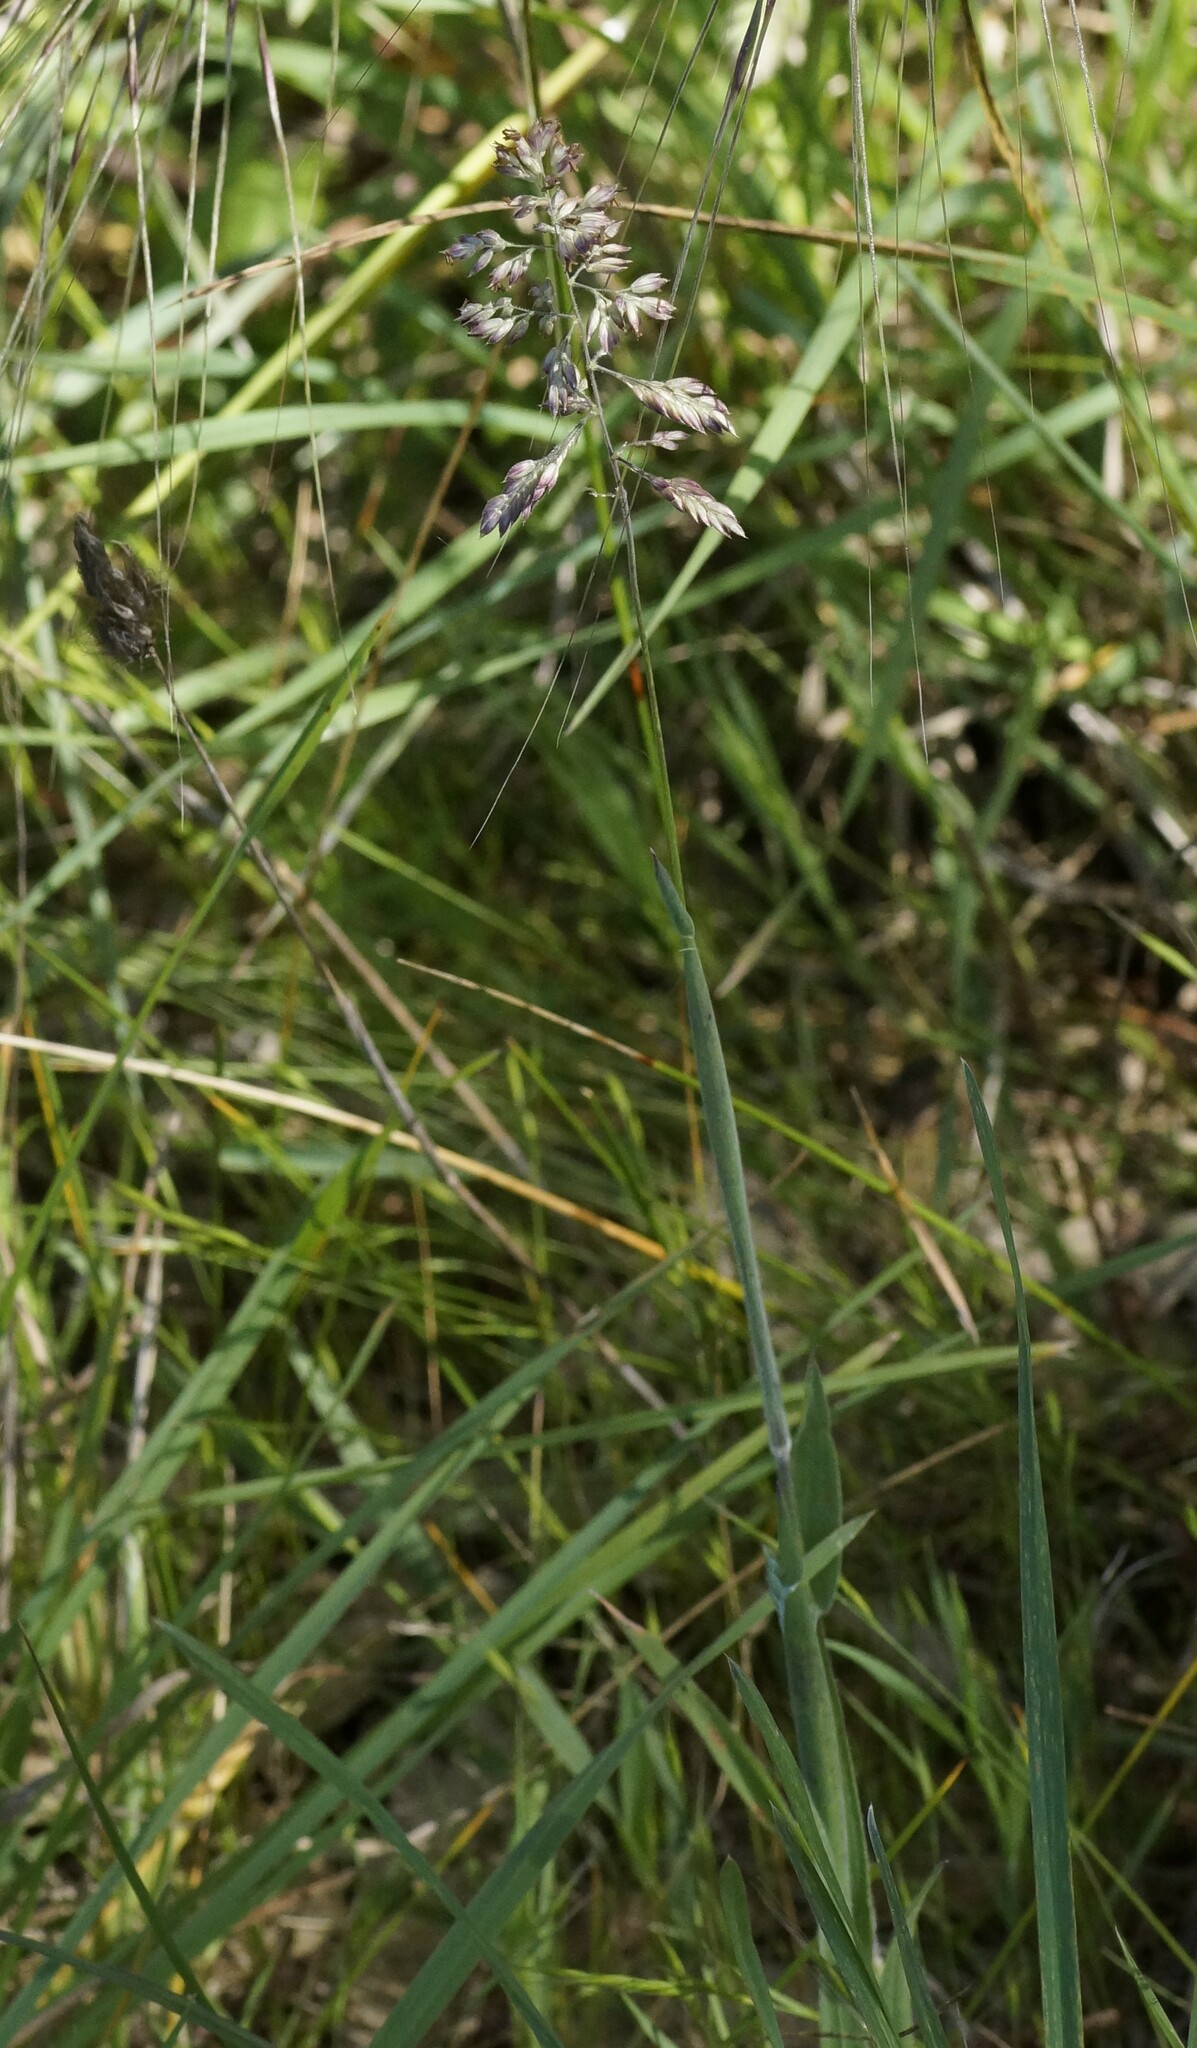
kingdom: Plantae
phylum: Tracheophyta
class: Liliopsida
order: Poales
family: Poaceae
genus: Holcus
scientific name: Holcus lanatus
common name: Yorkshire-fog
